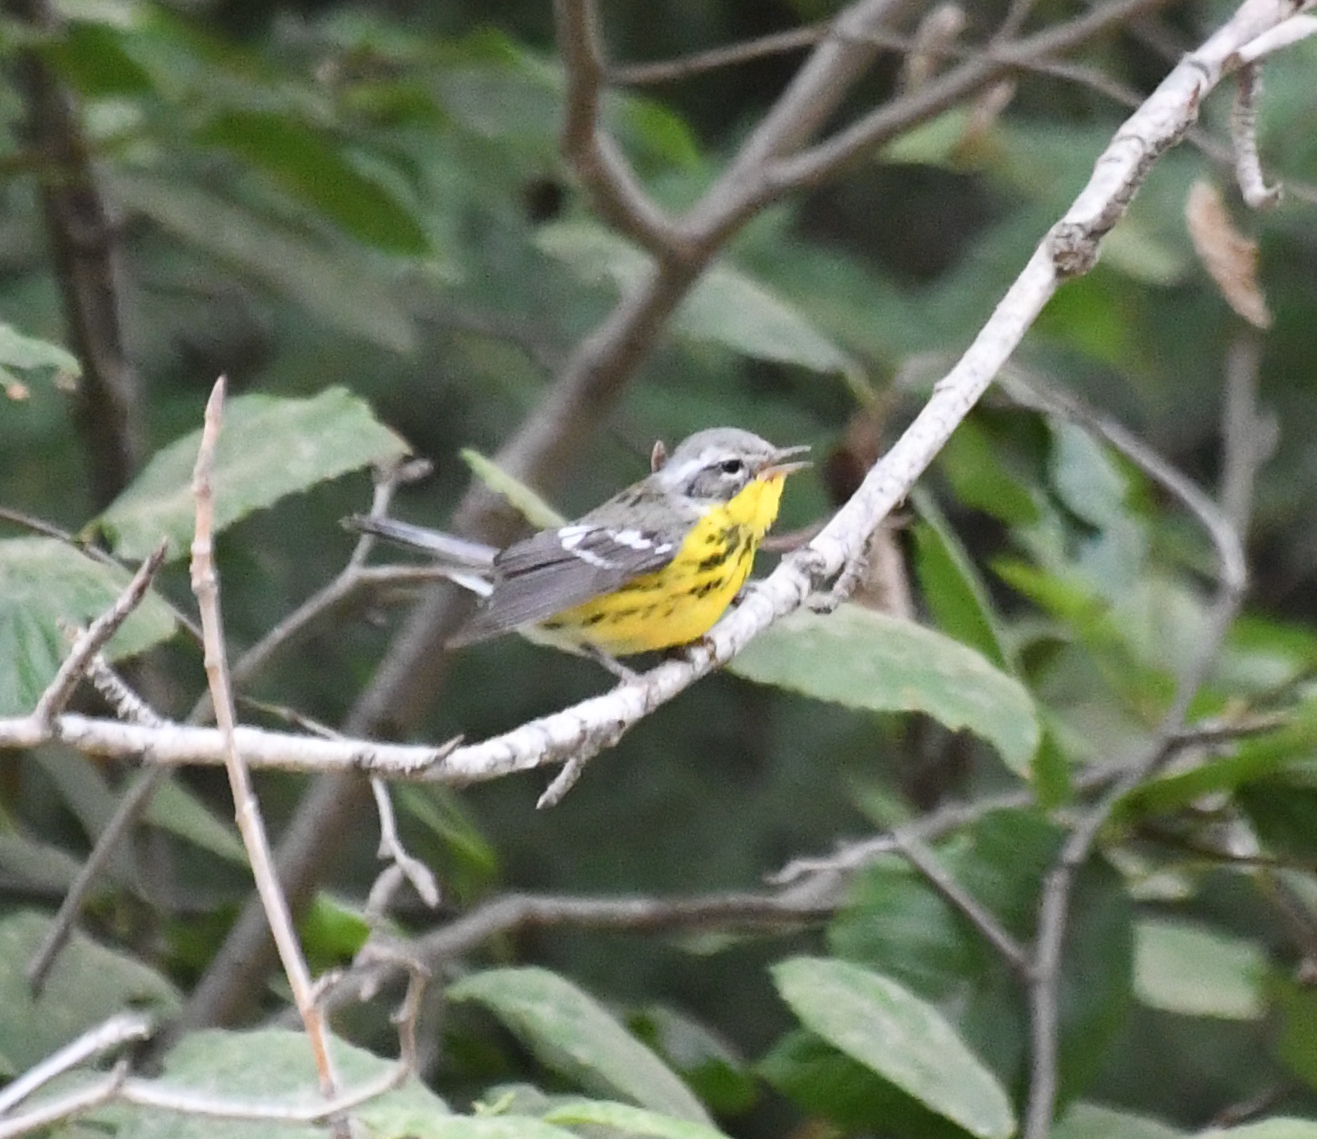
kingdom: Animalia
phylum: Chordata
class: Aves
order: Passeriformes
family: Parulidae
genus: Setophaga
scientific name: Setophaga magnolia
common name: Magnolia warbler
